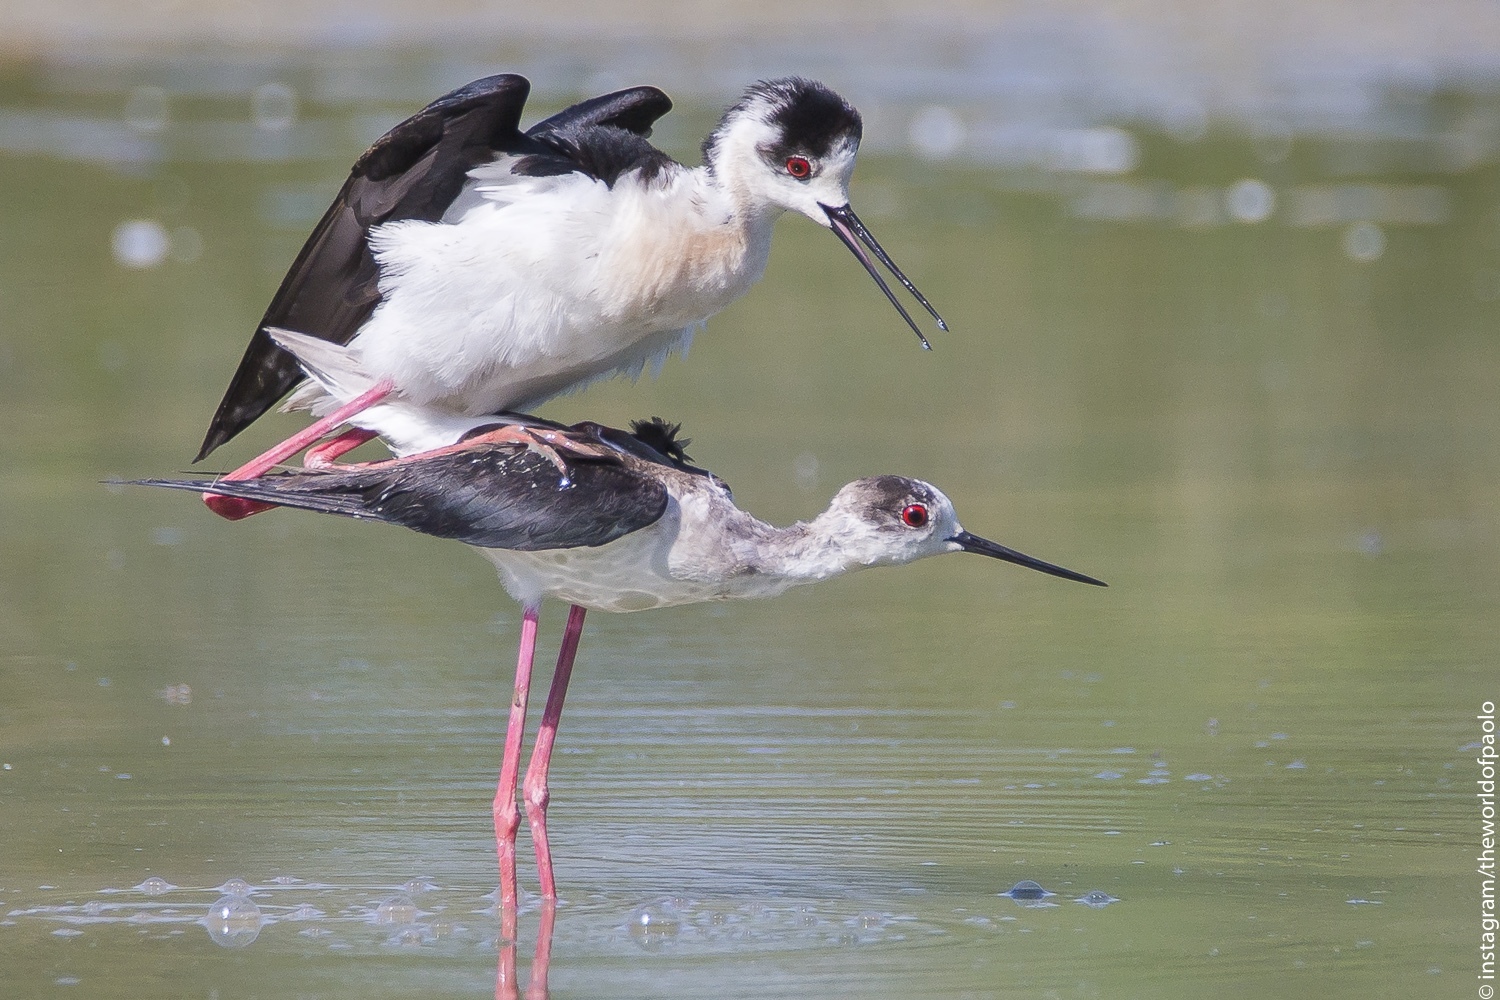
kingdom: Animalia
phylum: Chordata
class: Aves
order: Charadriiformes
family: Recurvirostridae
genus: Himantopus
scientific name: Himantopus himantopus
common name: Black-winged stilt
